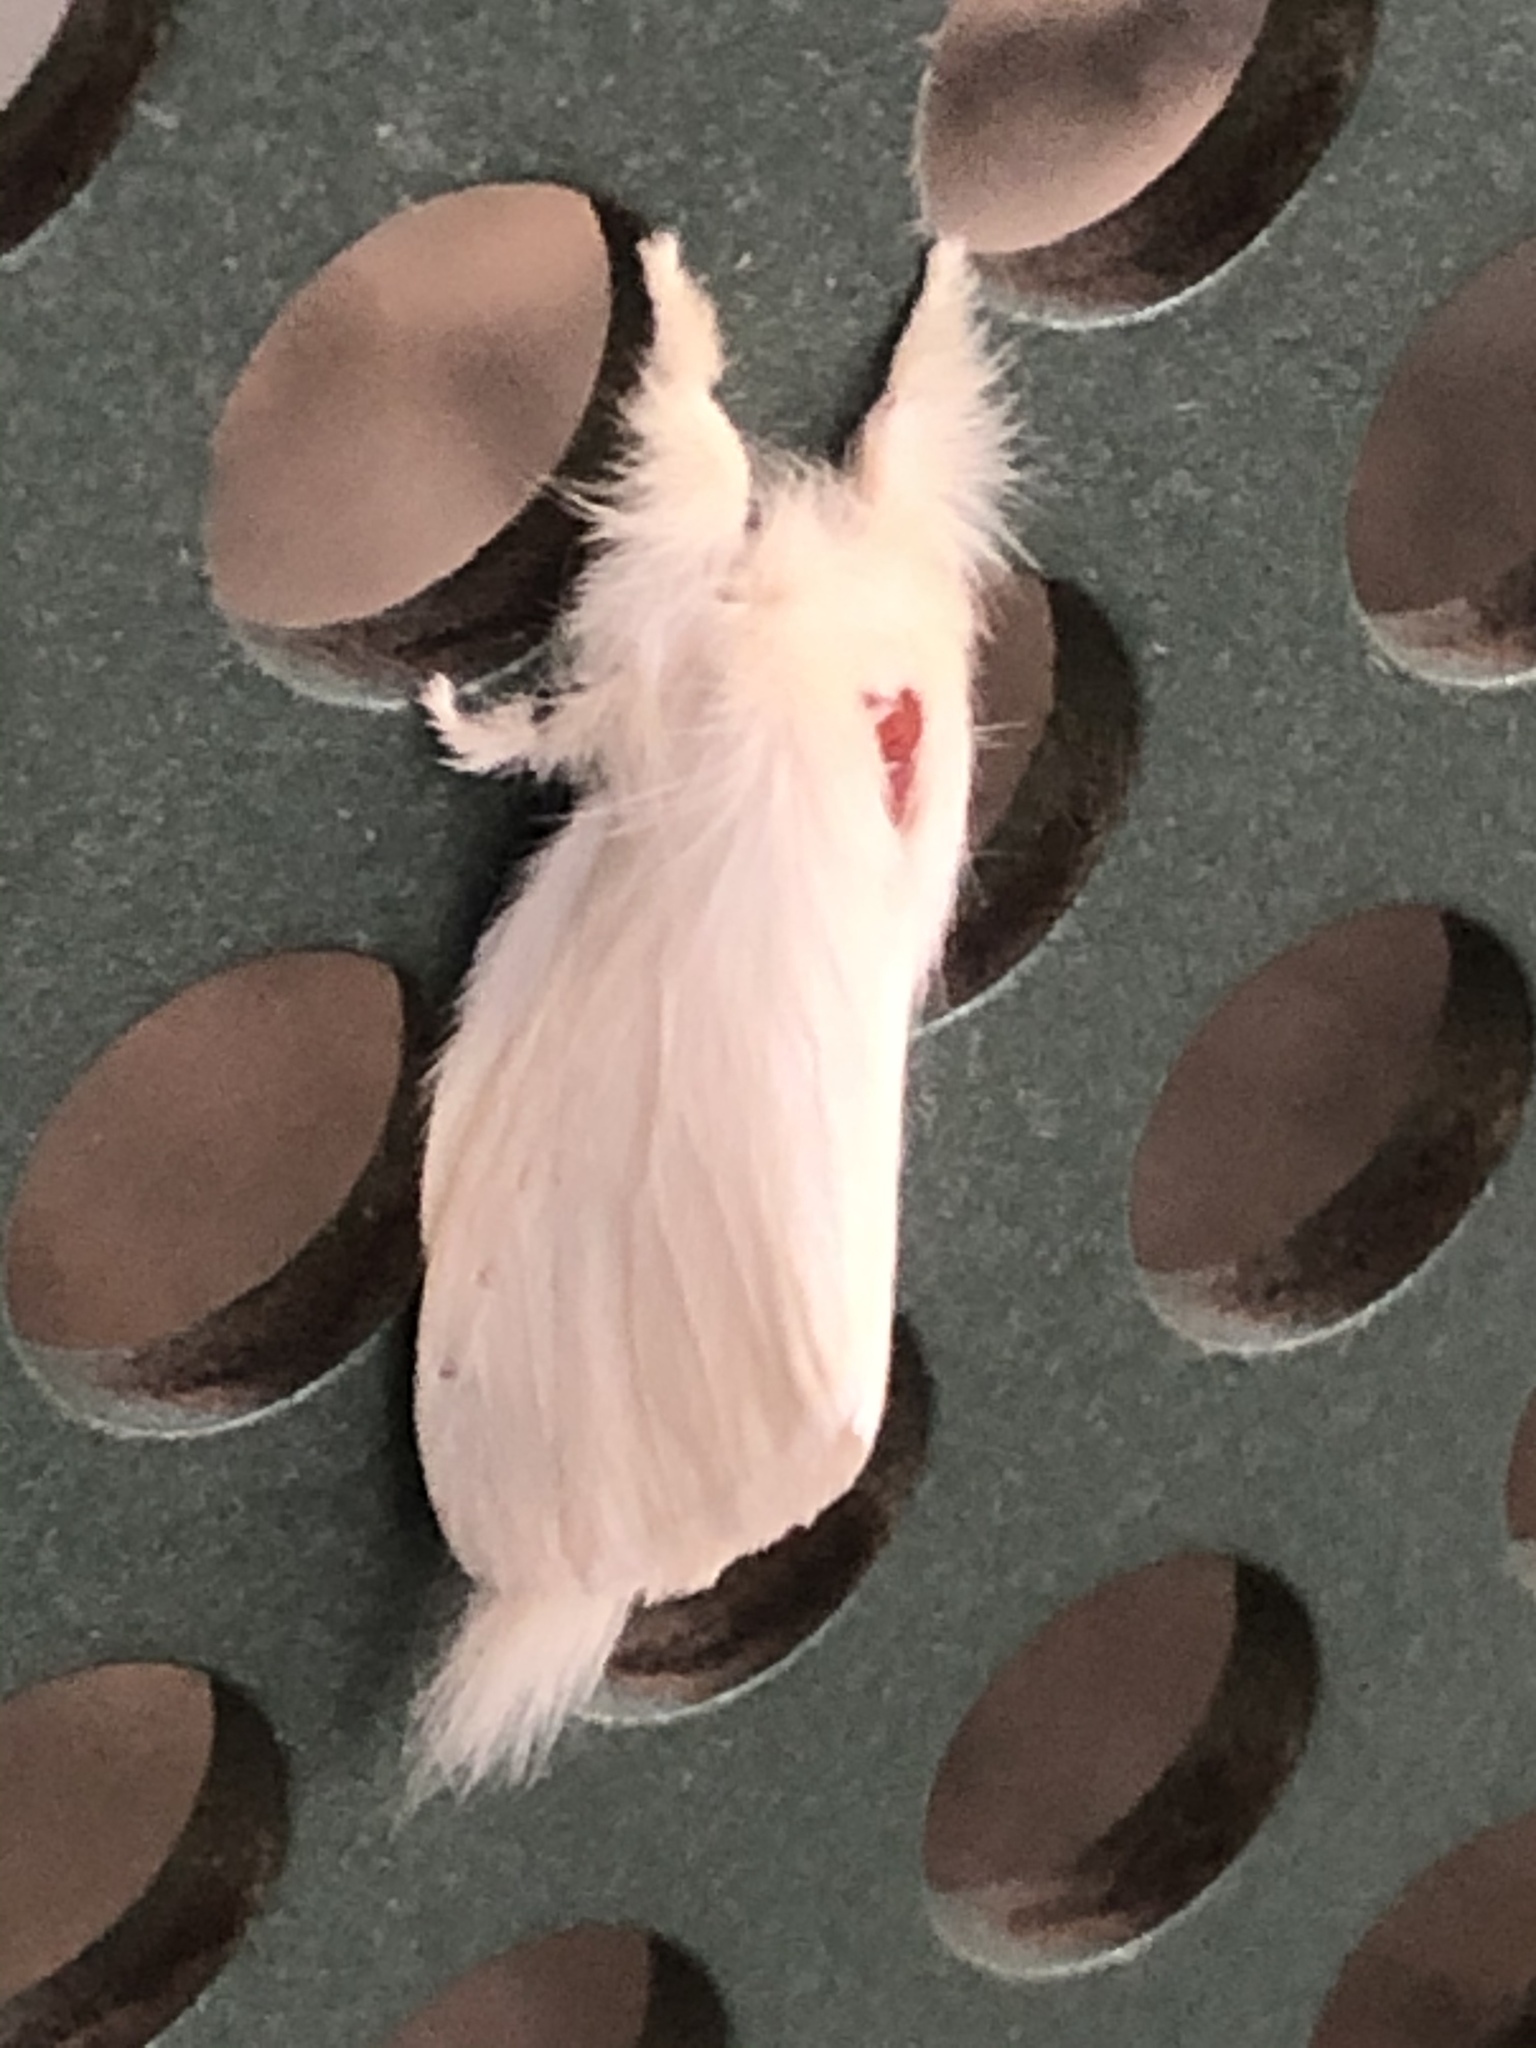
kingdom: Animalia
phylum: Arthropoda
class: Insecta
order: Lepidoptera
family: Notodontidae
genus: Trichiocercus
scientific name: Trichiocercus sparshalli
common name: Long-tailed satin
